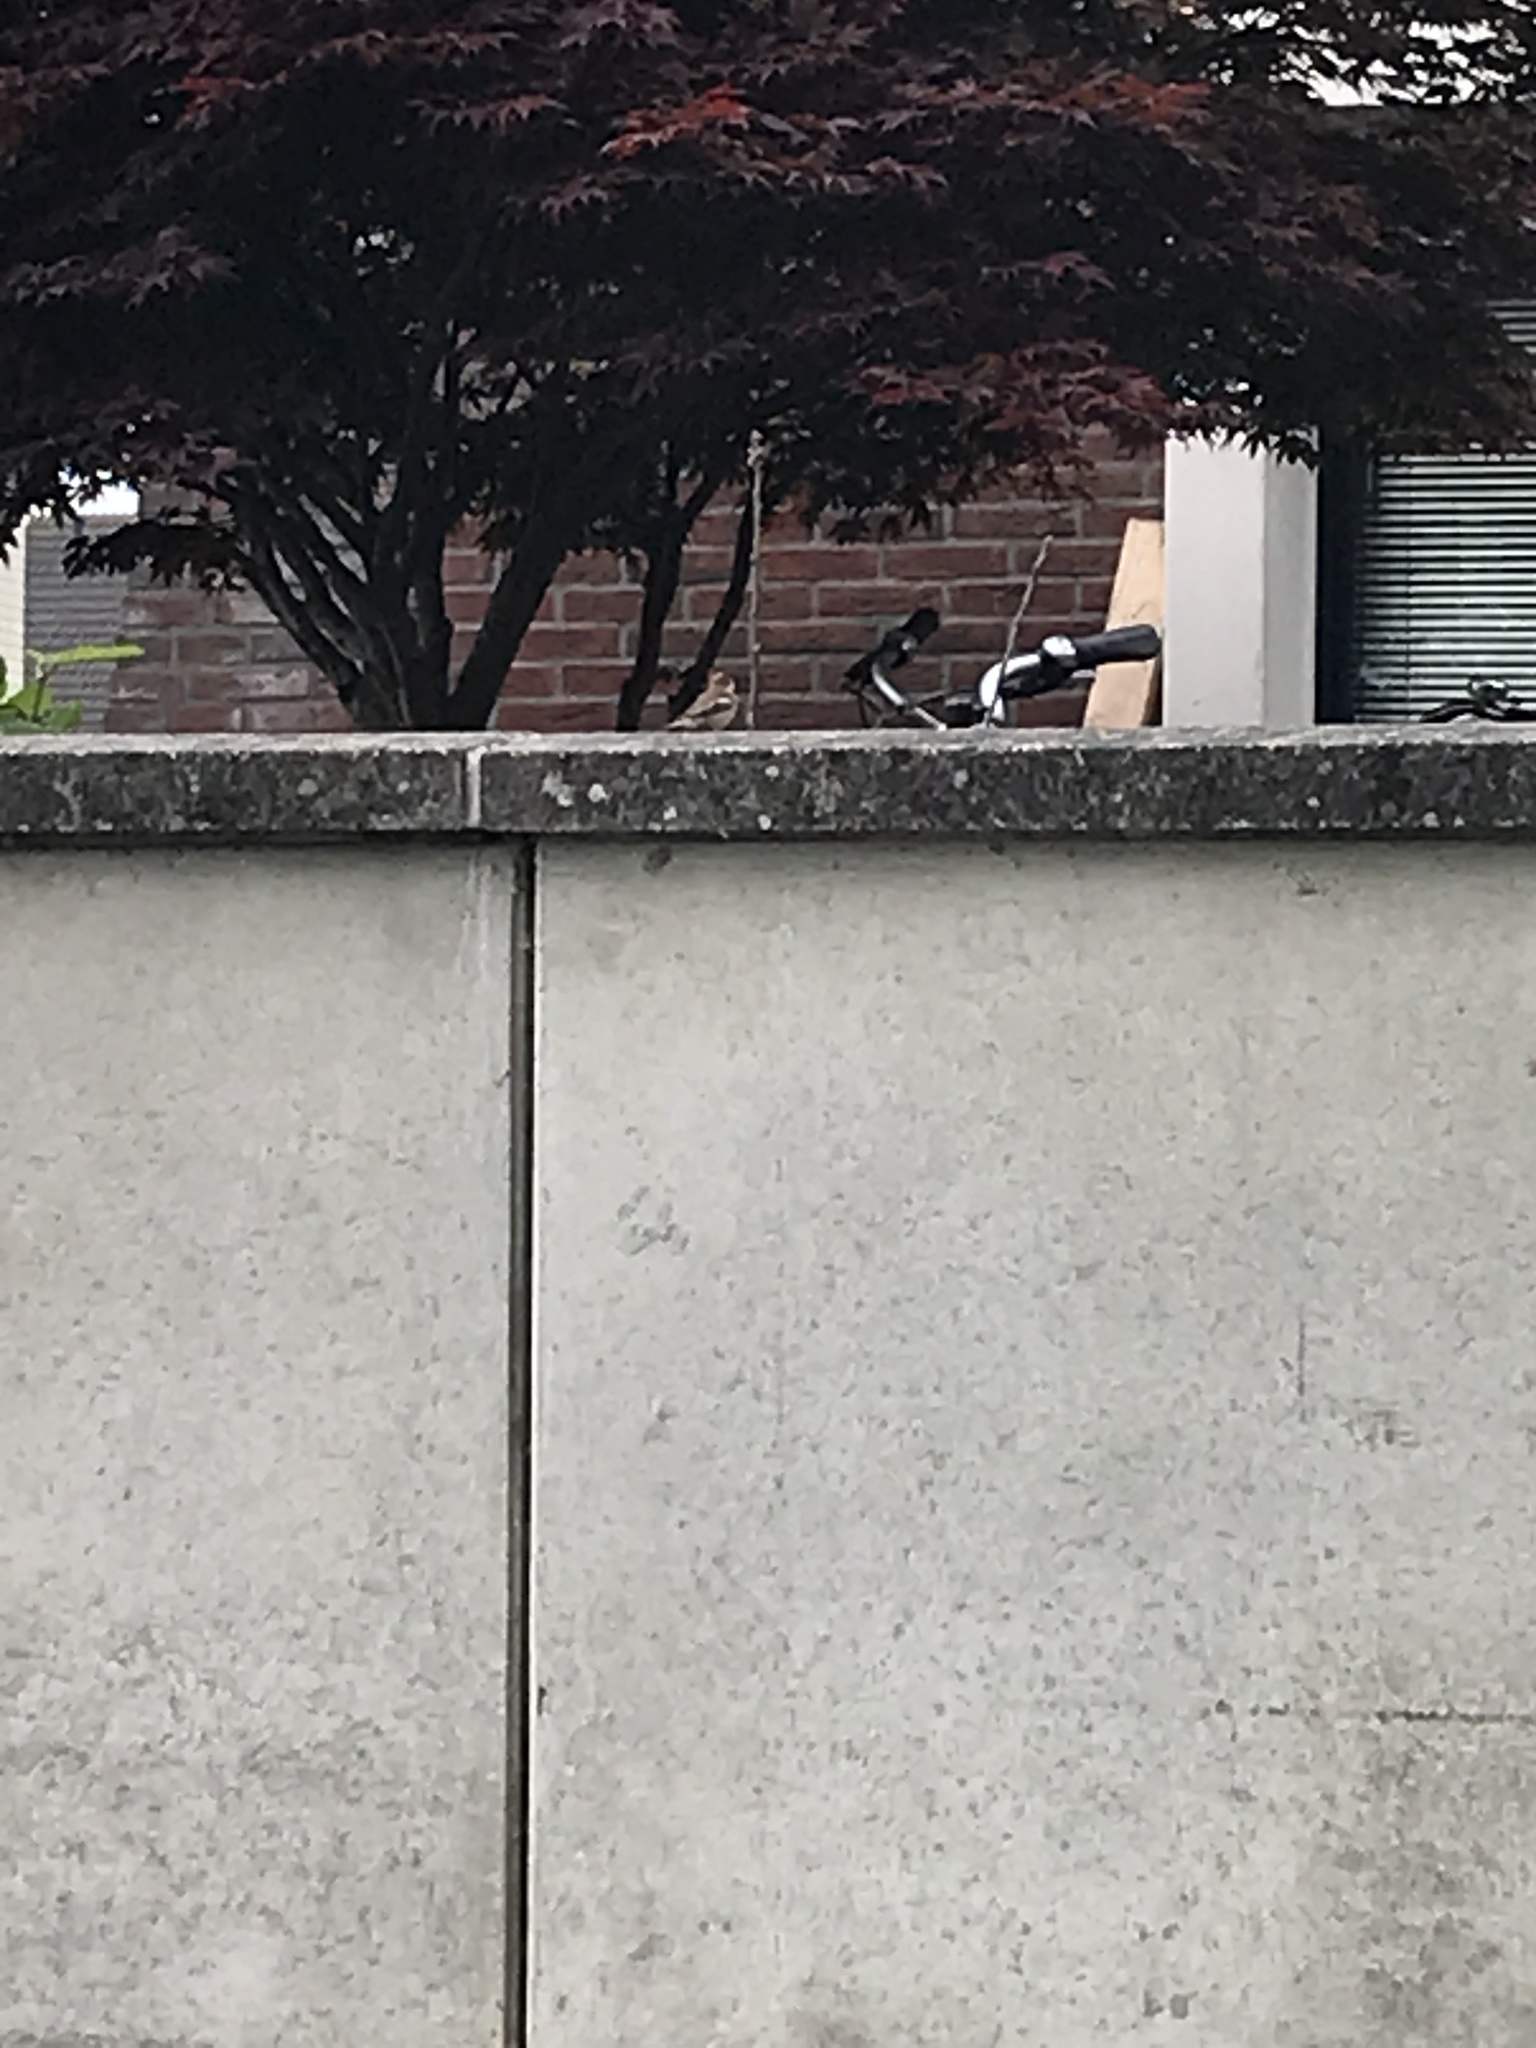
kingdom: Animalia
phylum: Chordata
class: Aves
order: Passeriformes
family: Passeridae
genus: Passer
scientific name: Passer domesticus
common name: House sparrow
